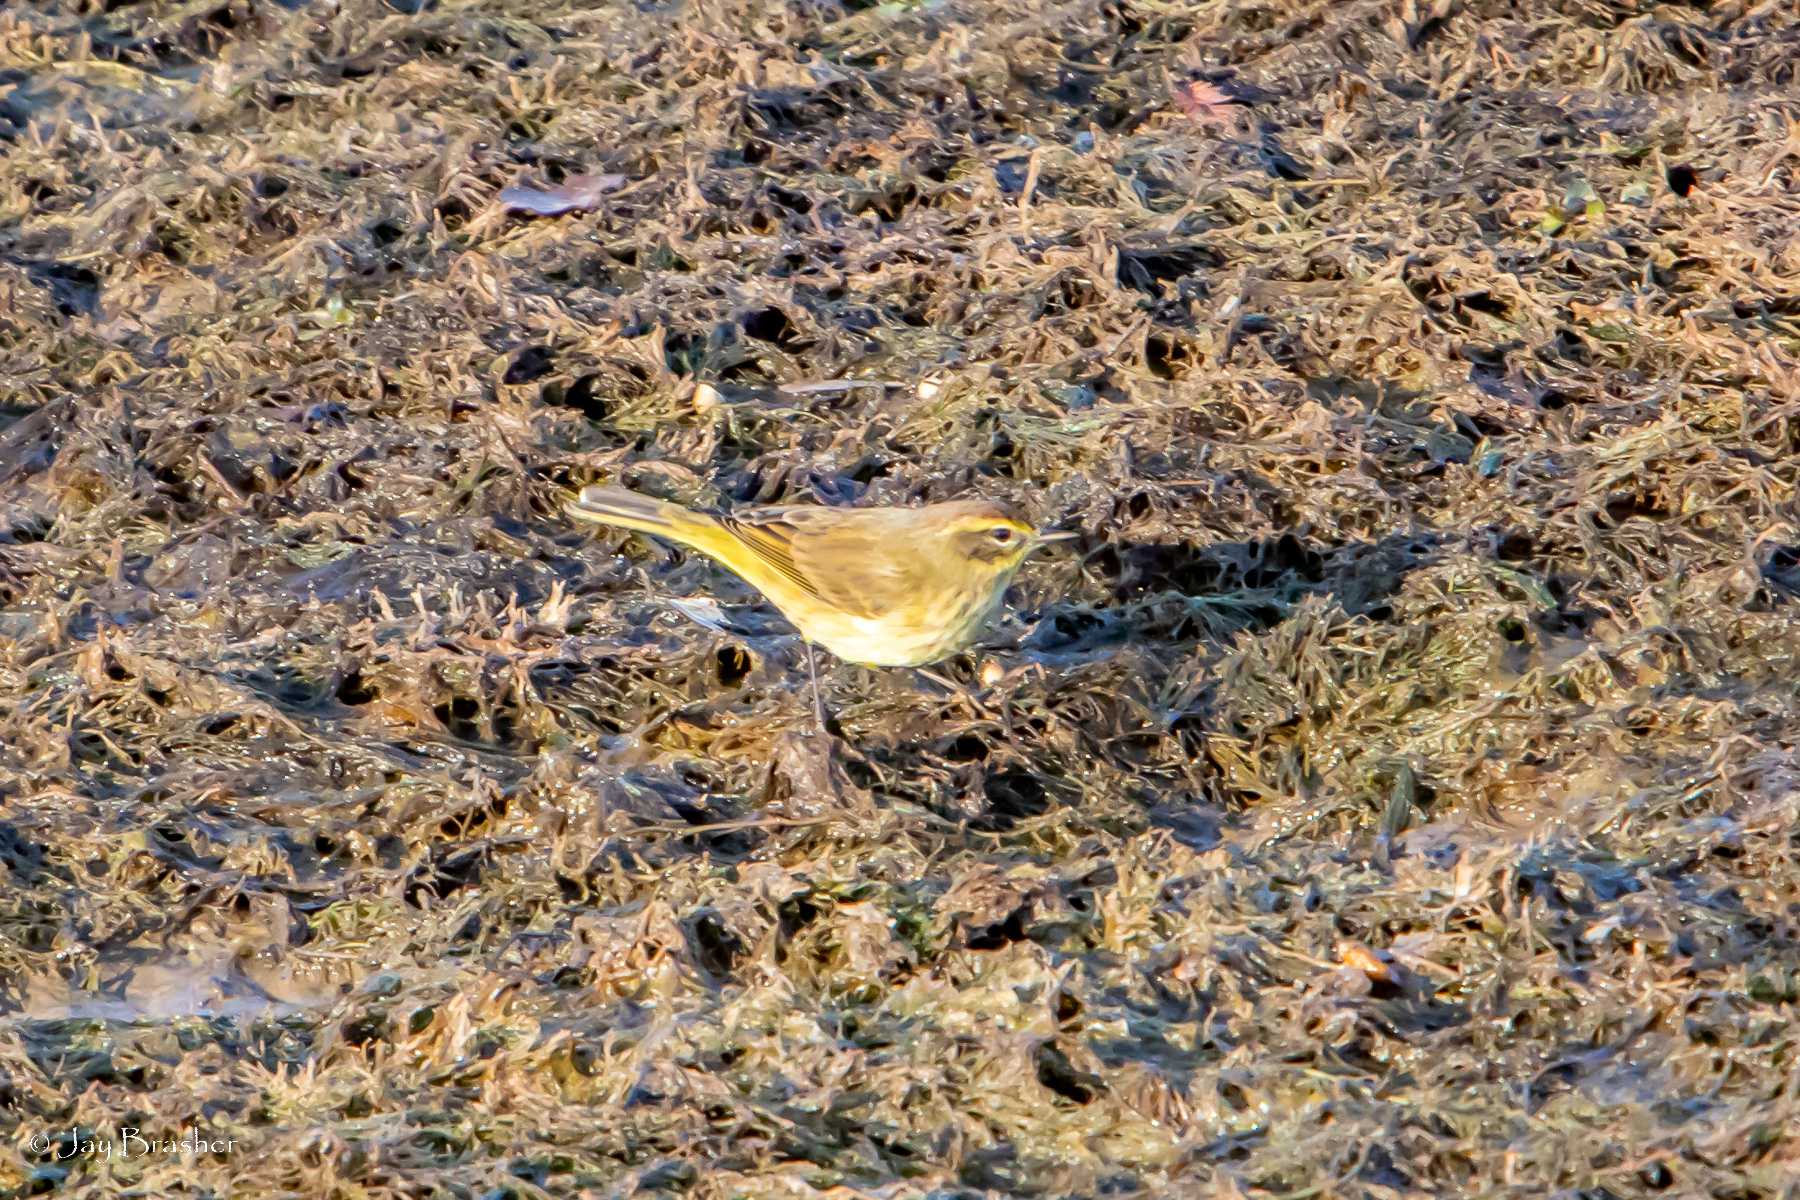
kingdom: Animalia
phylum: Chordata
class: Aves
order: Passeriformes
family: Parulidae
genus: Setophaga
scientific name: Setophaga palmarum
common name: Palm warbler
